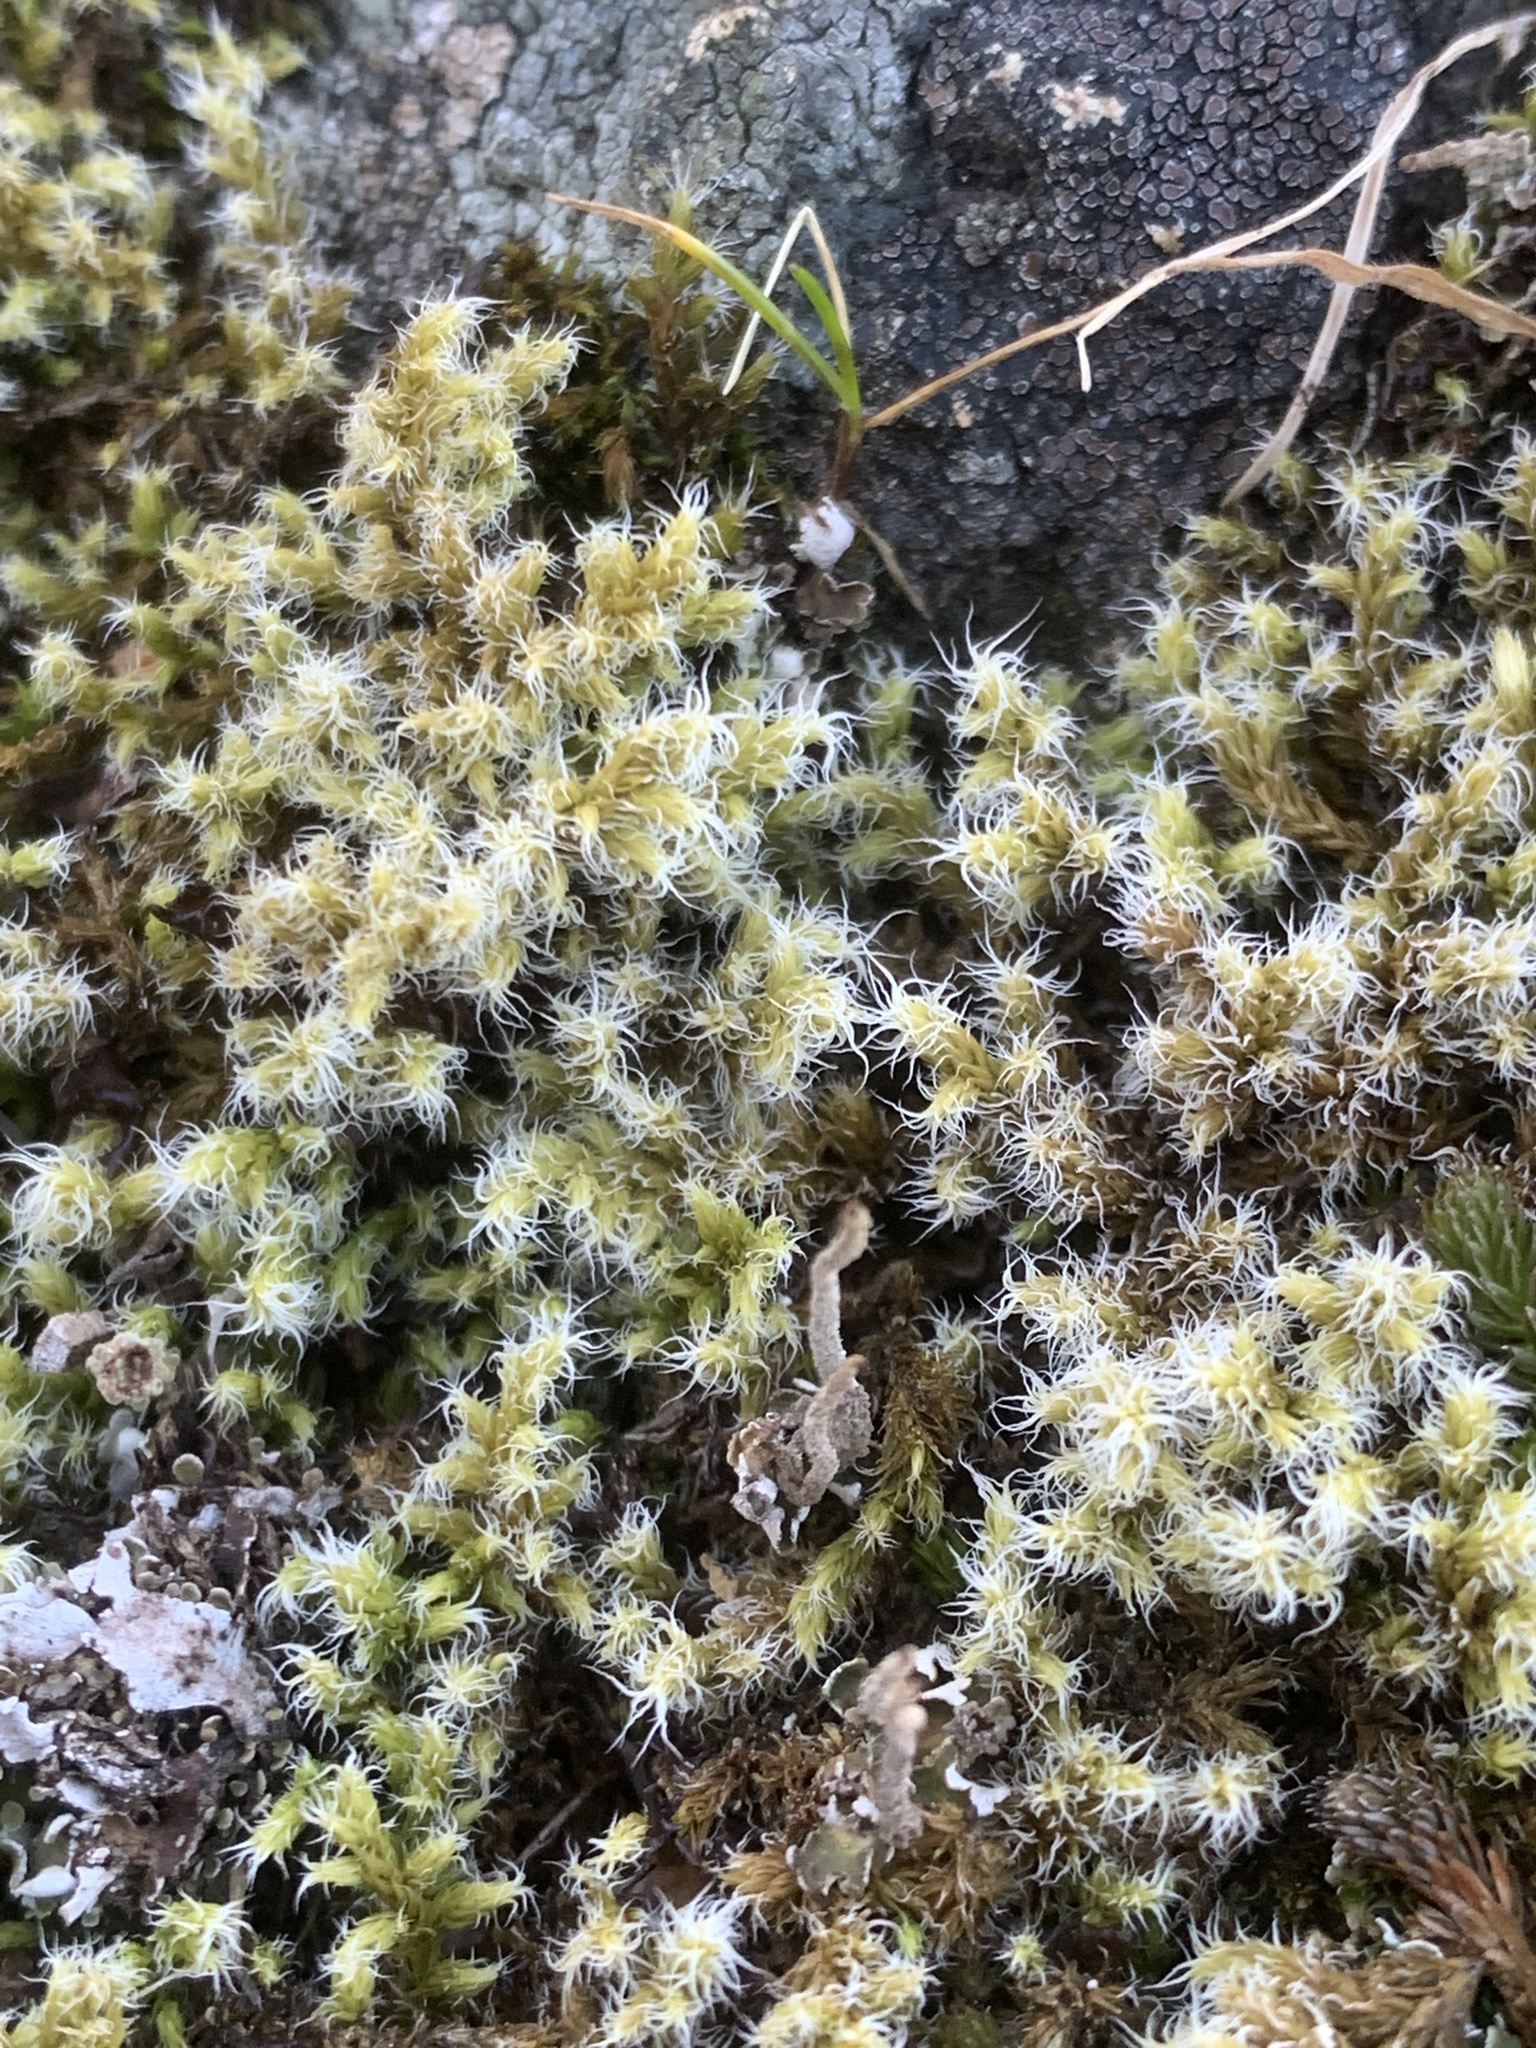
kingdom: Plantae
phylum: Bryophyta
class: Bryopsida
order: Grimmiales
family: Grimmiaceae
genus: Niphotrichum
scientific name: Niphotrichum elongatum
